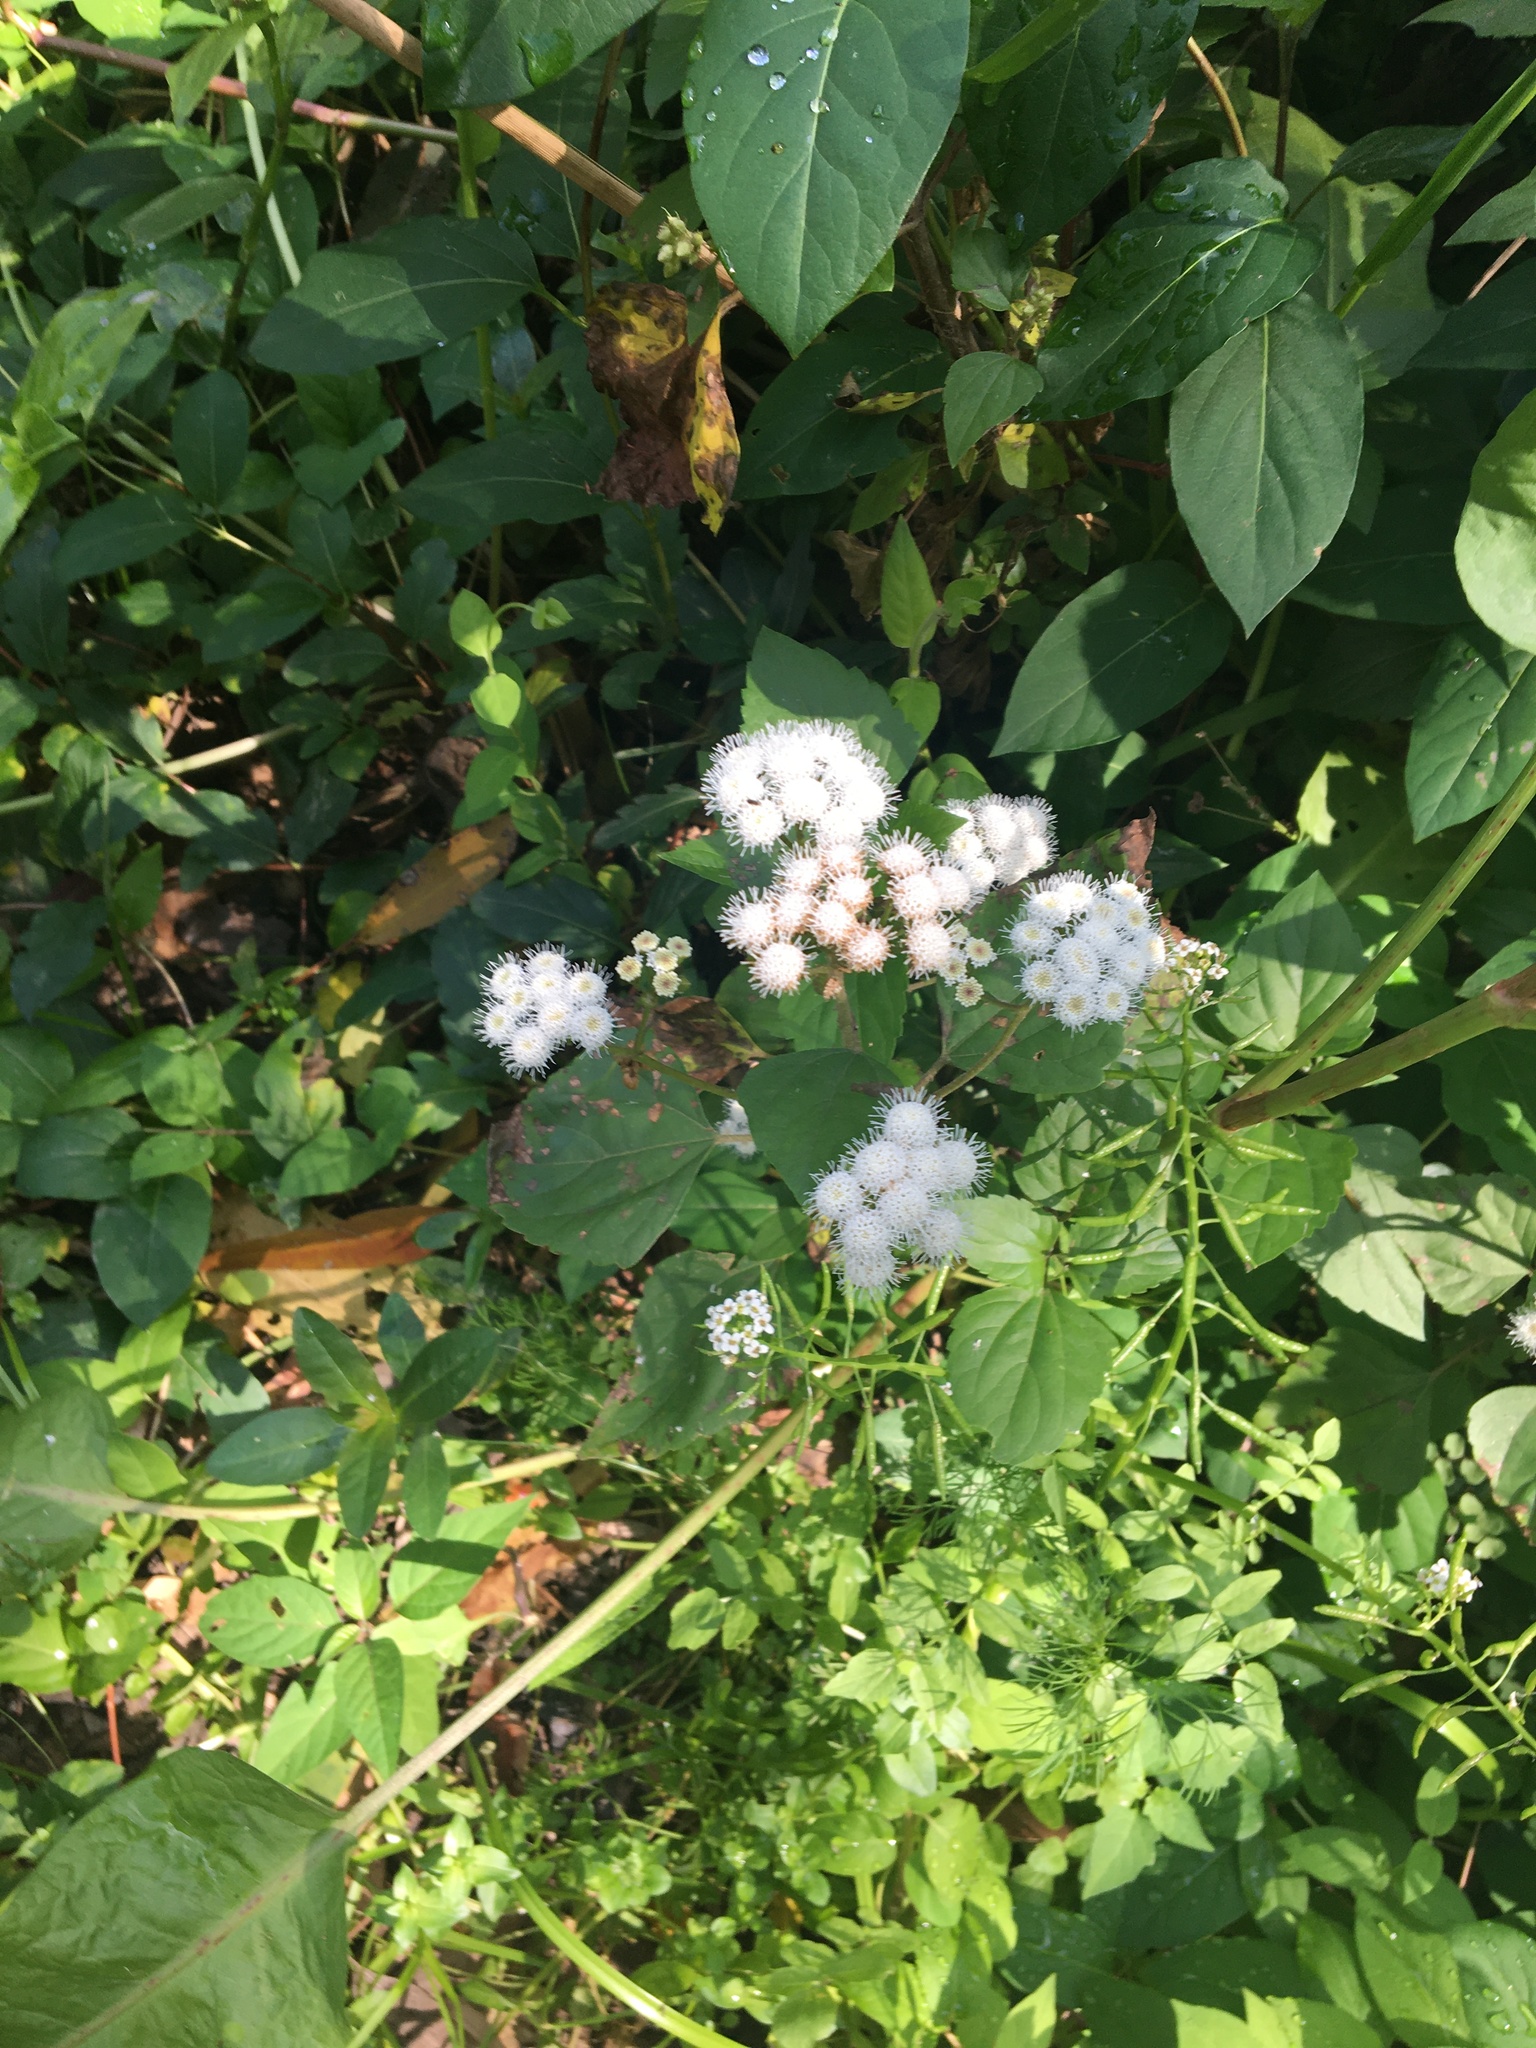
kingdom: Plantae
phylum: Tracheophyta
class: Magnoliopsida
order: Asterales
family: Asteraceae
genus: Ageratina
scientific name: Ageratina adenophora
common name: Sticky snakeroot
